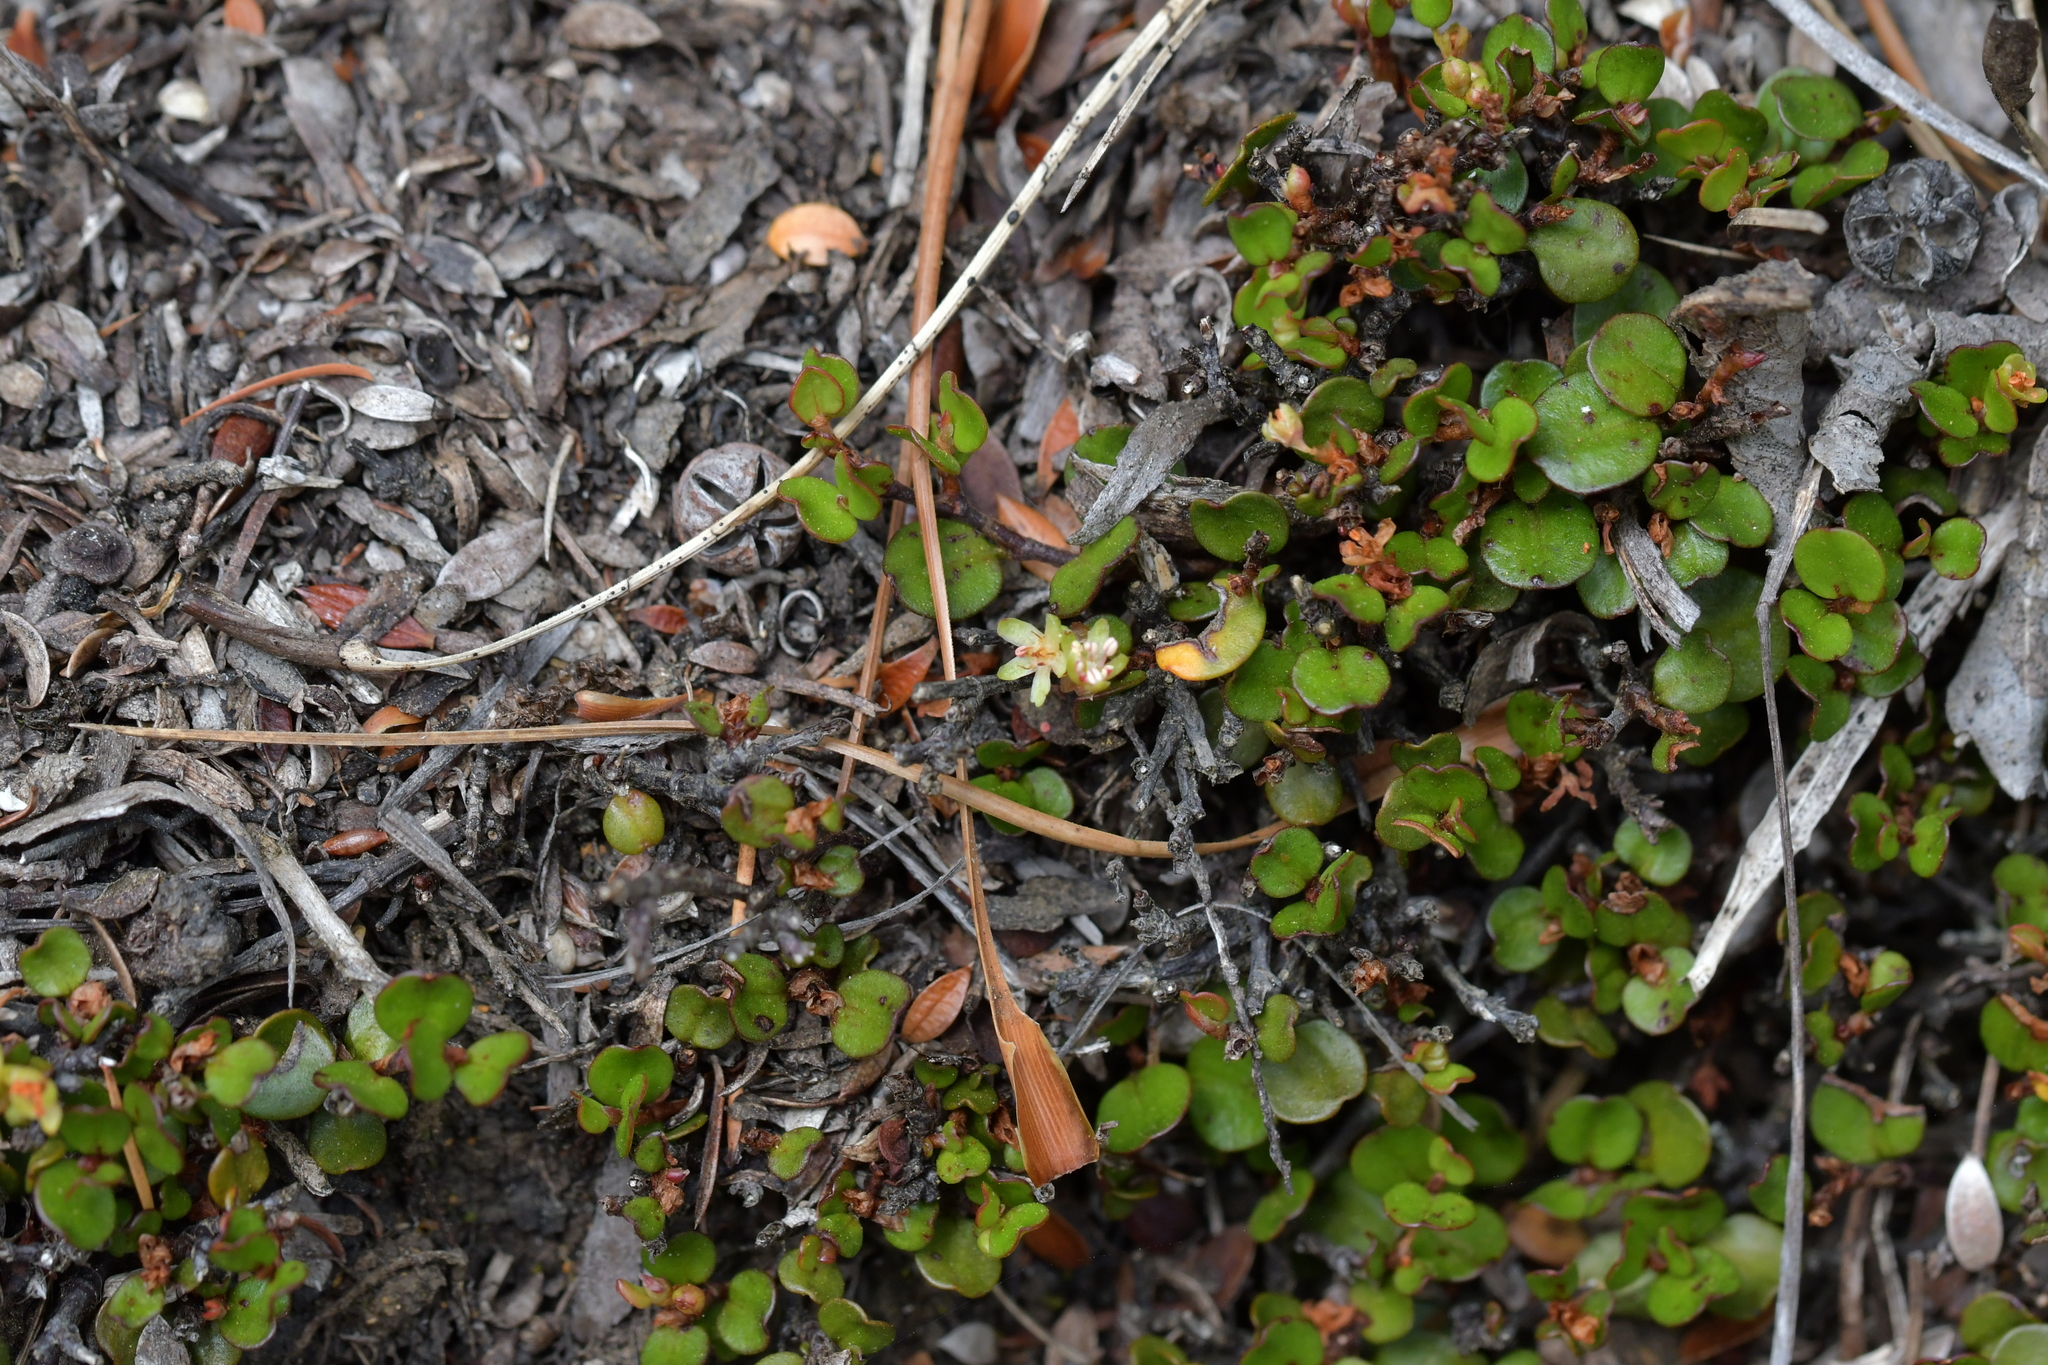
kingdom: Plantae
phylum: Tracheophyta
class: Magnoliopsida
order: Caryophyllales
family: Polygonaceae
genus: Muehlenbeckia
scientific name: Muehlenbeckia axillaris
